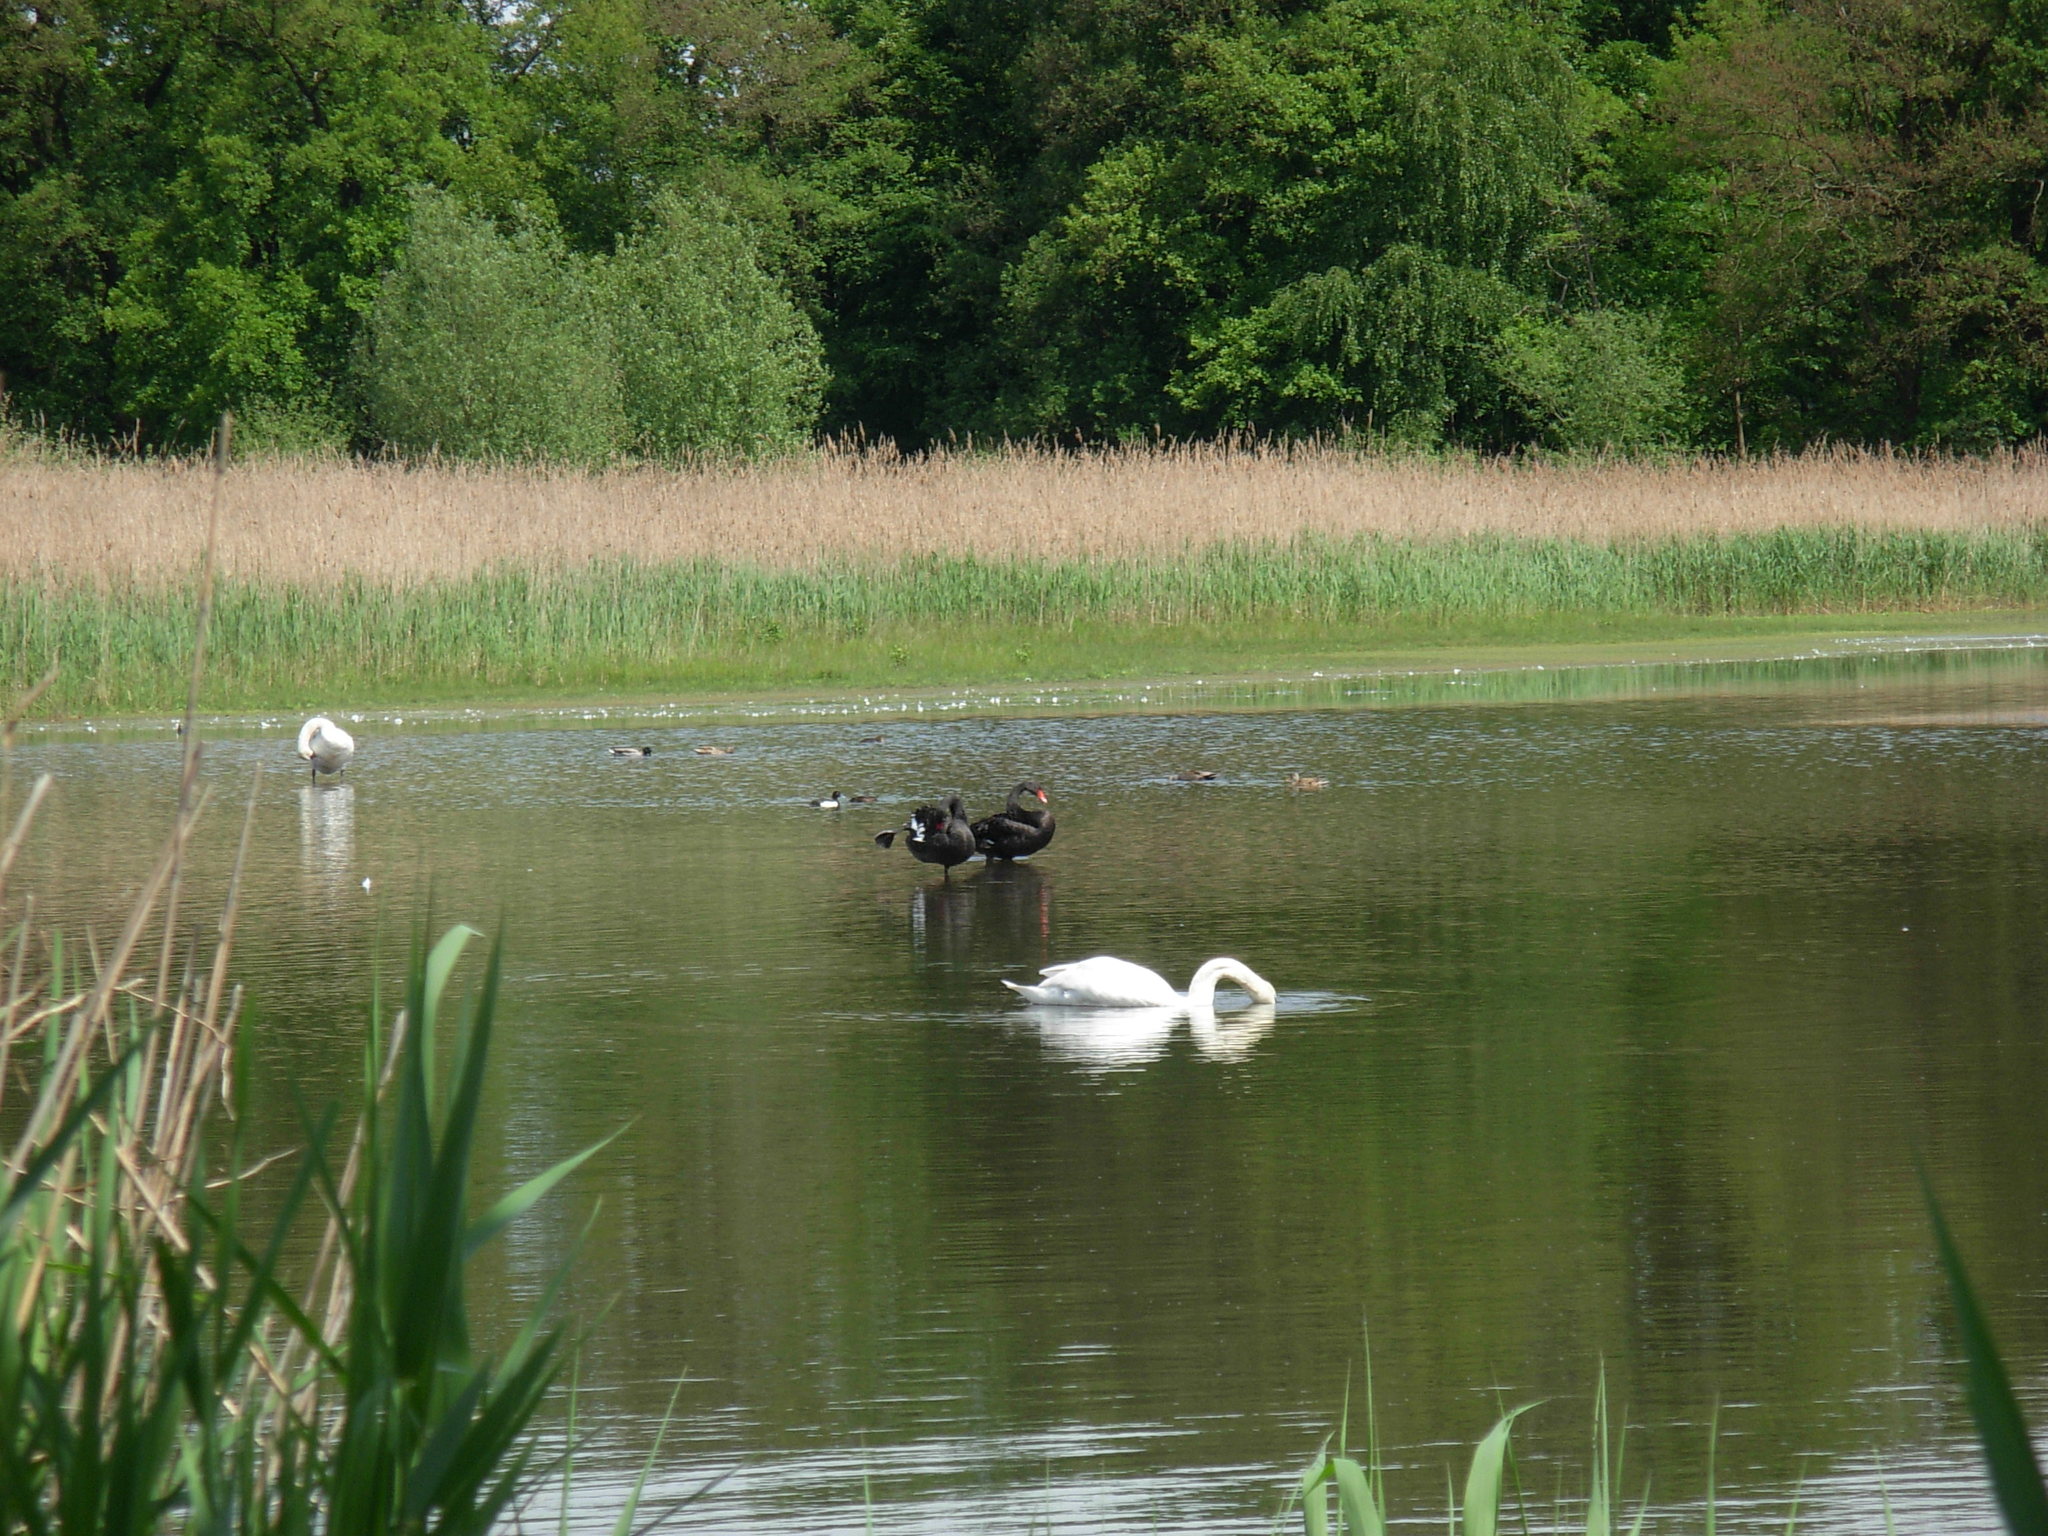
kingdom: Animalia
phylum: Chordata
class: Aves
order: Anseriformes
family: Anatidae
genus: Cygnus
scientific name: Cygnus atratus
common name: Black swan
